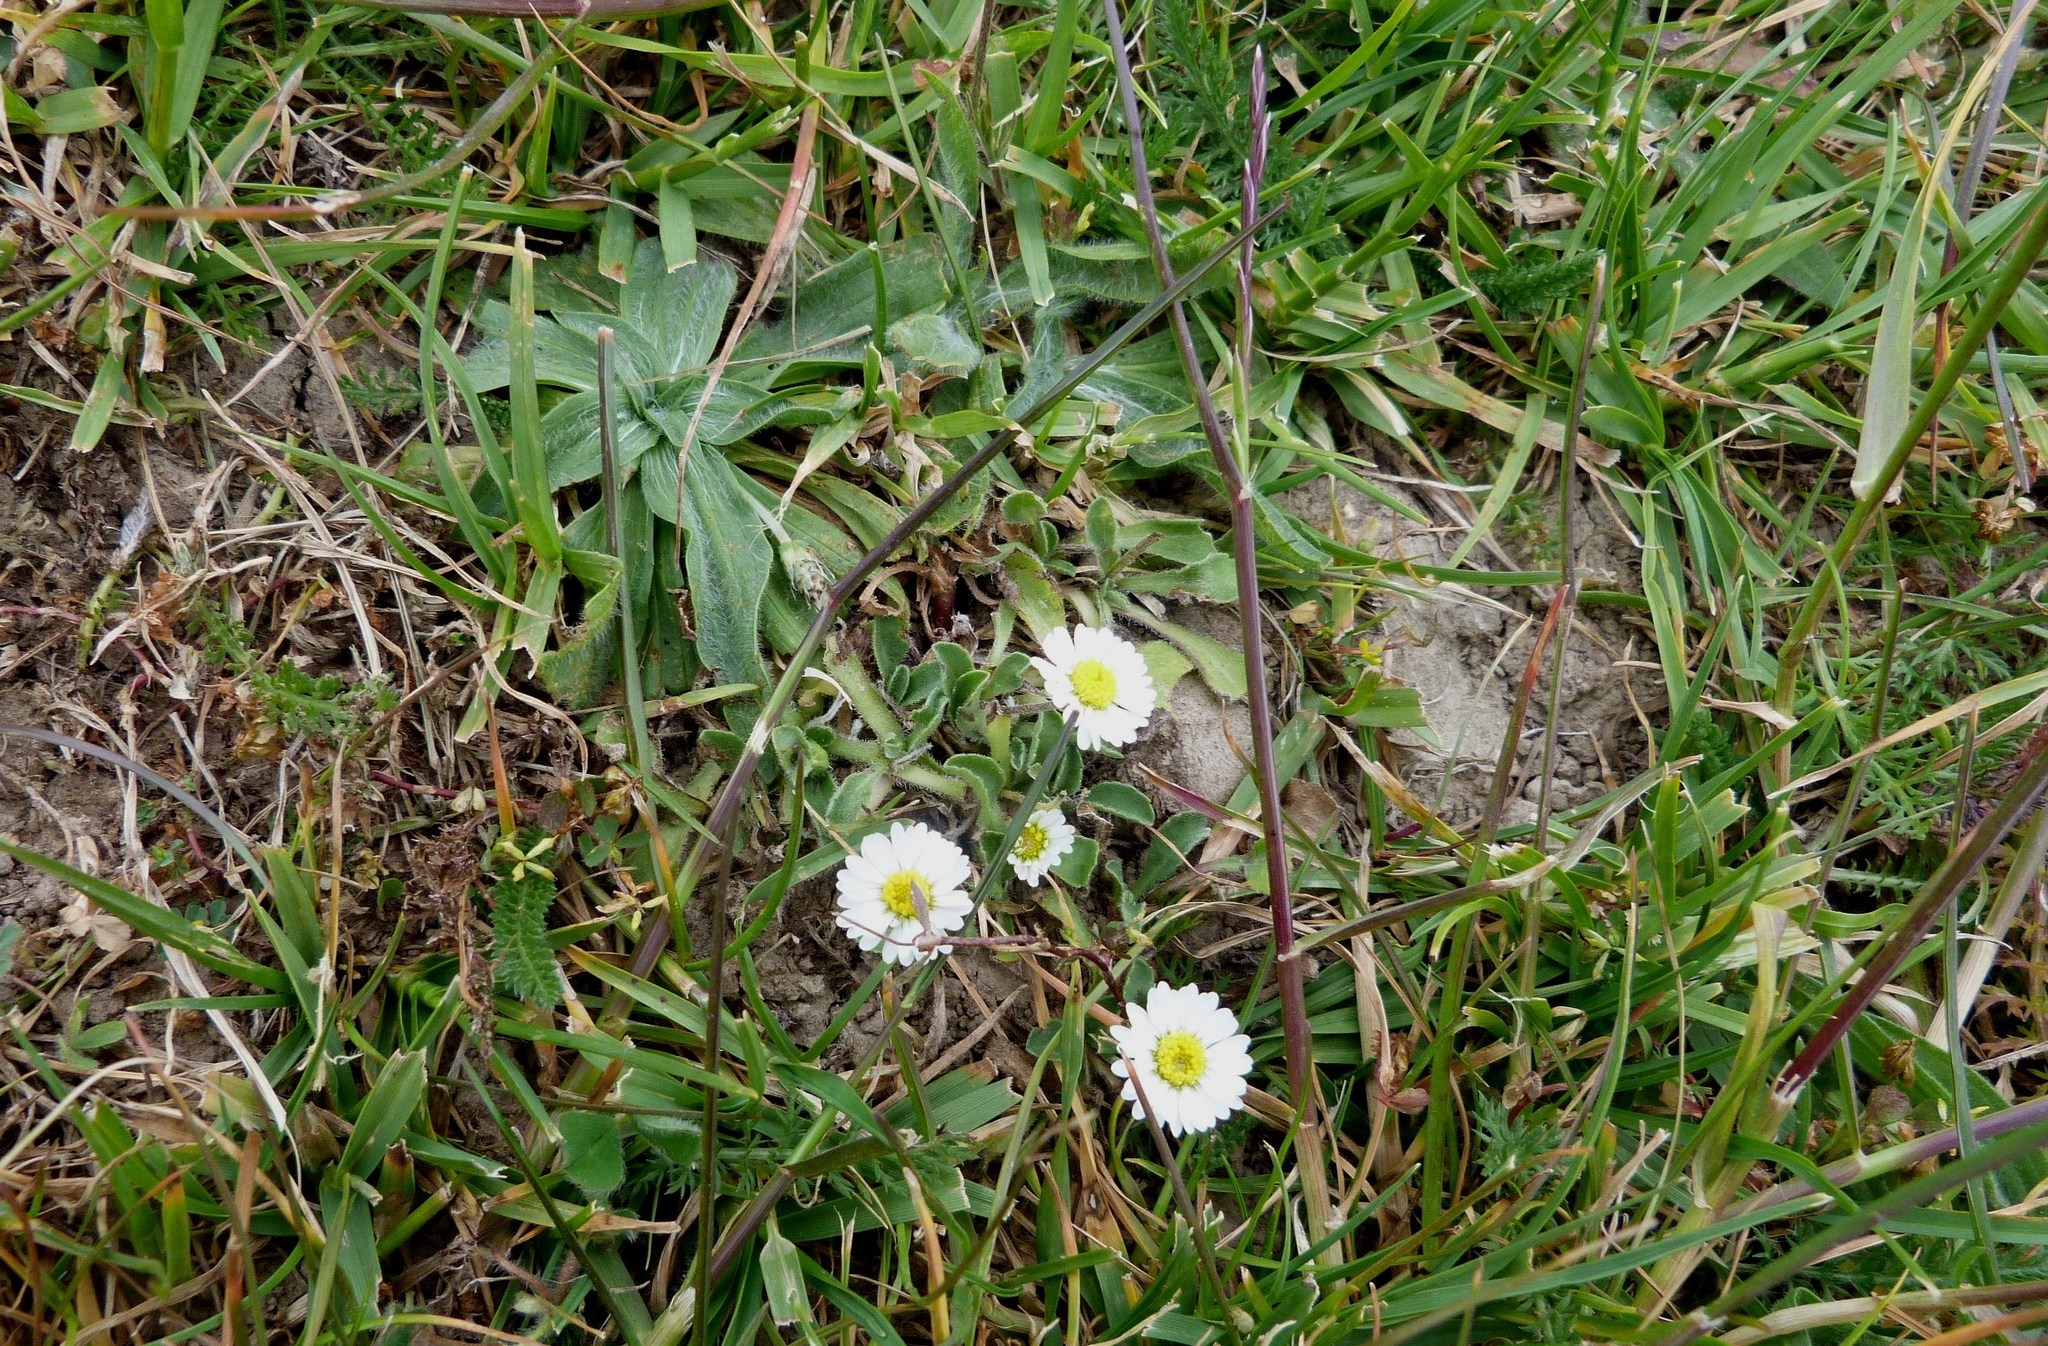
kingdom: Plantae
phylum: Tracheophyta
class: Magnoliopsida
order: Asterales
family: Asteraceae
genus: Bellis
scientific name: Bellis perennis
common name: Lawndaisy
